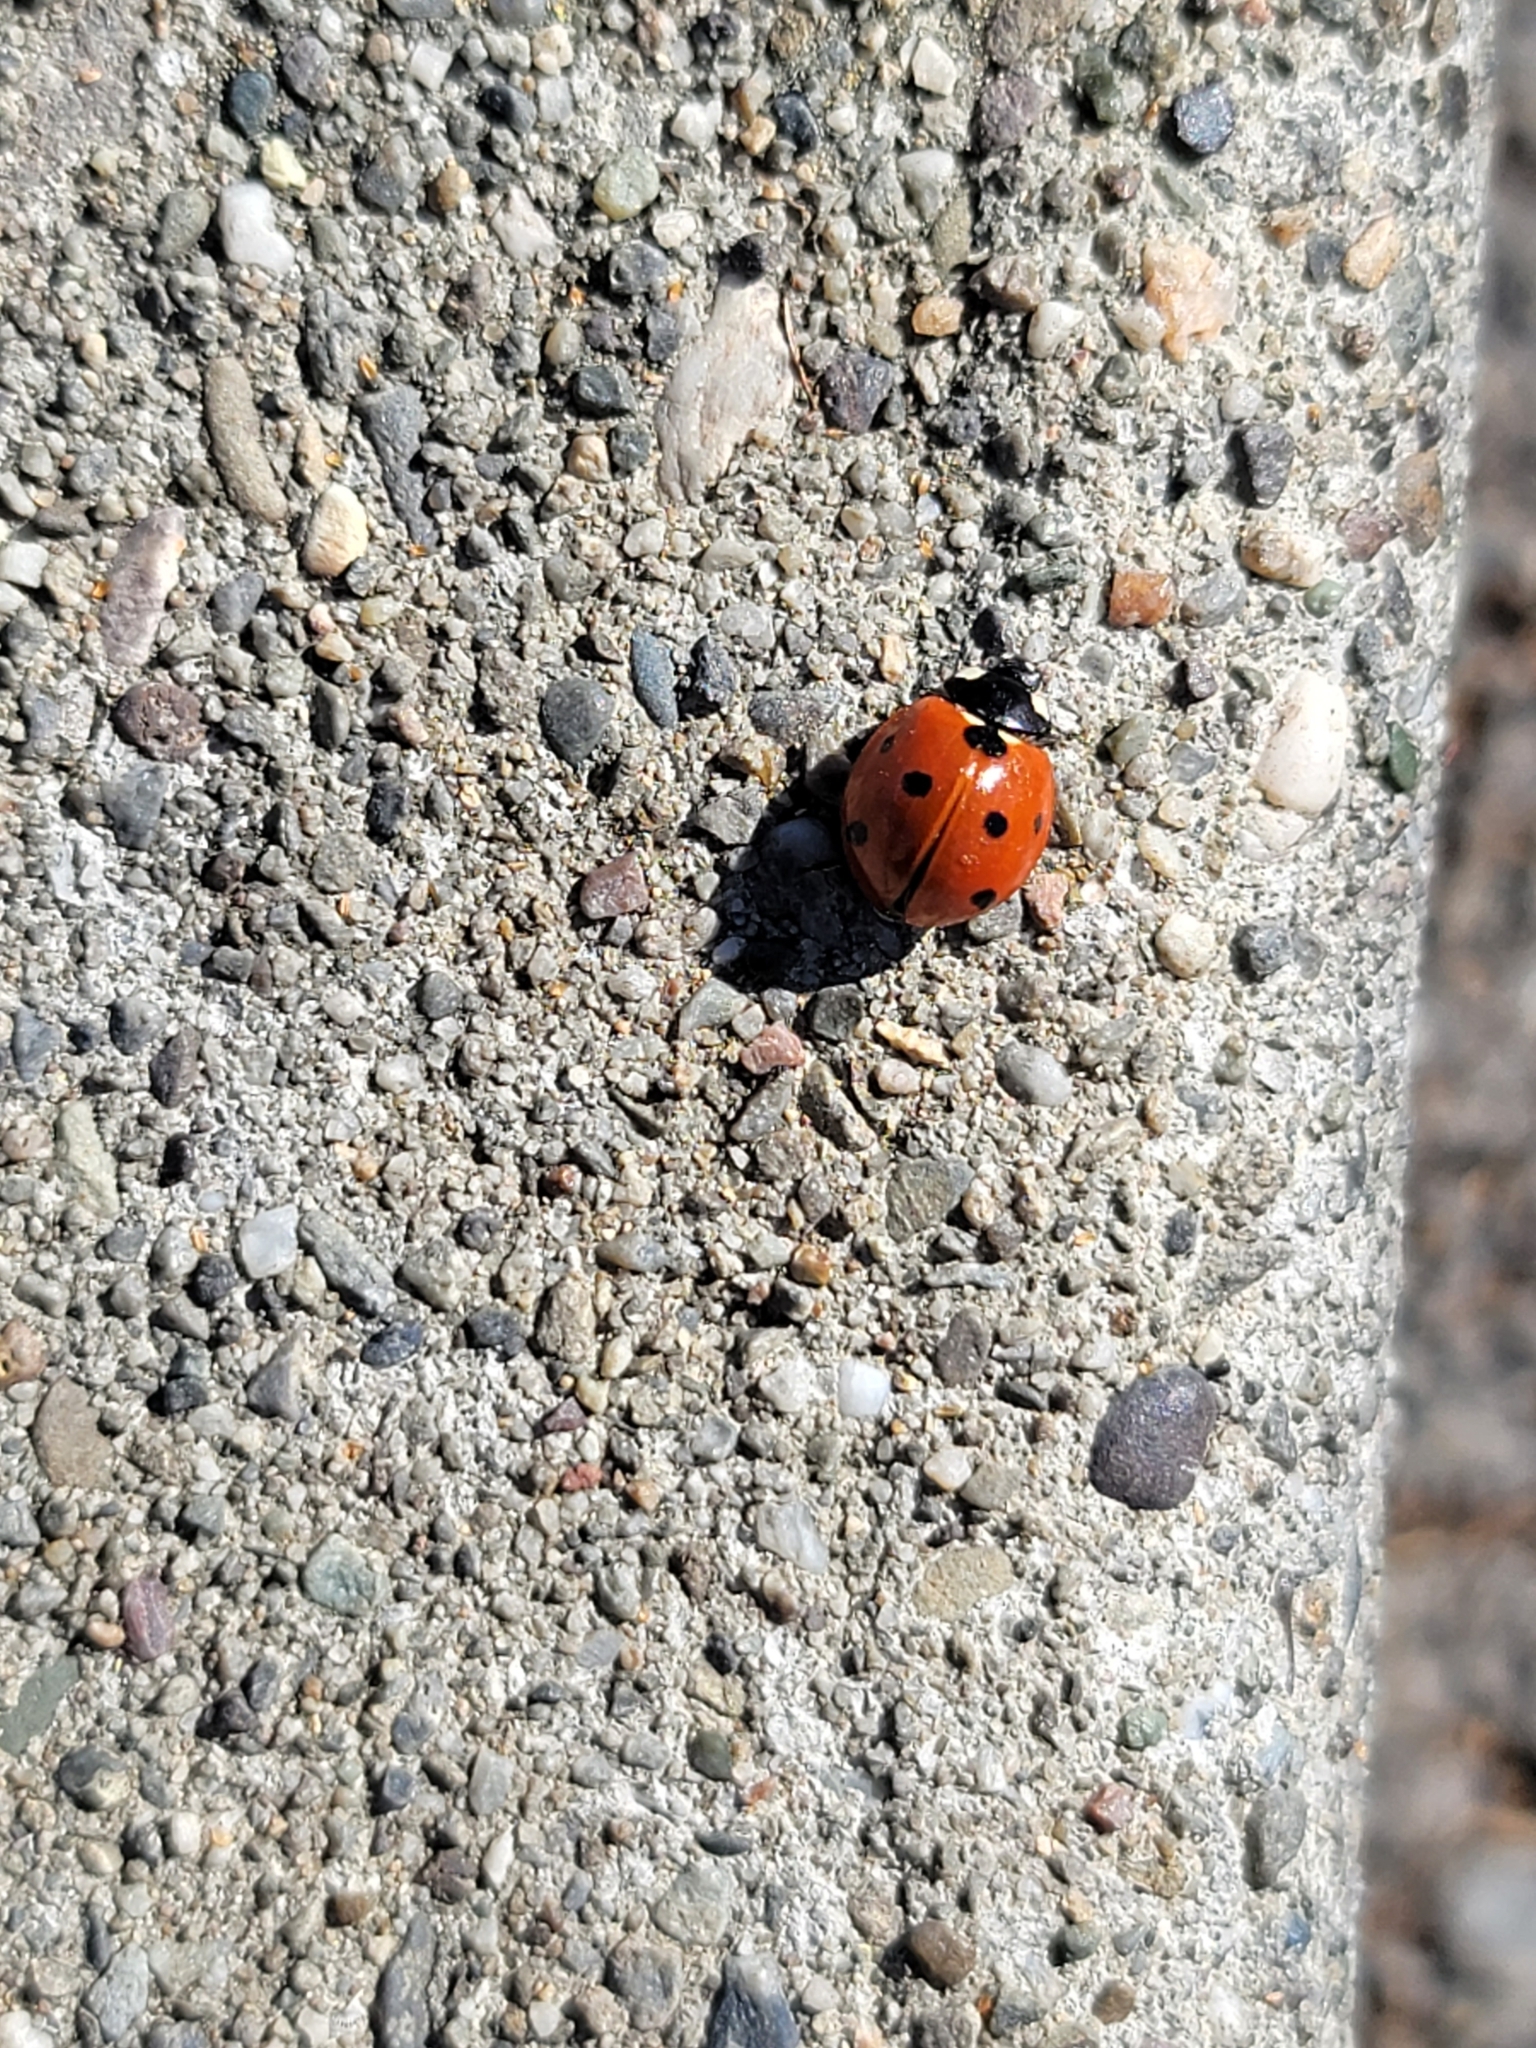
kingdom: Animalia
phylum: Arthropoda
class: Insecta
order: Coleoptera
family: Coccinellidae
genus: Coccinella
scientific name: Coccinella septempunctata
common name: Sevenspotted lady beetle
